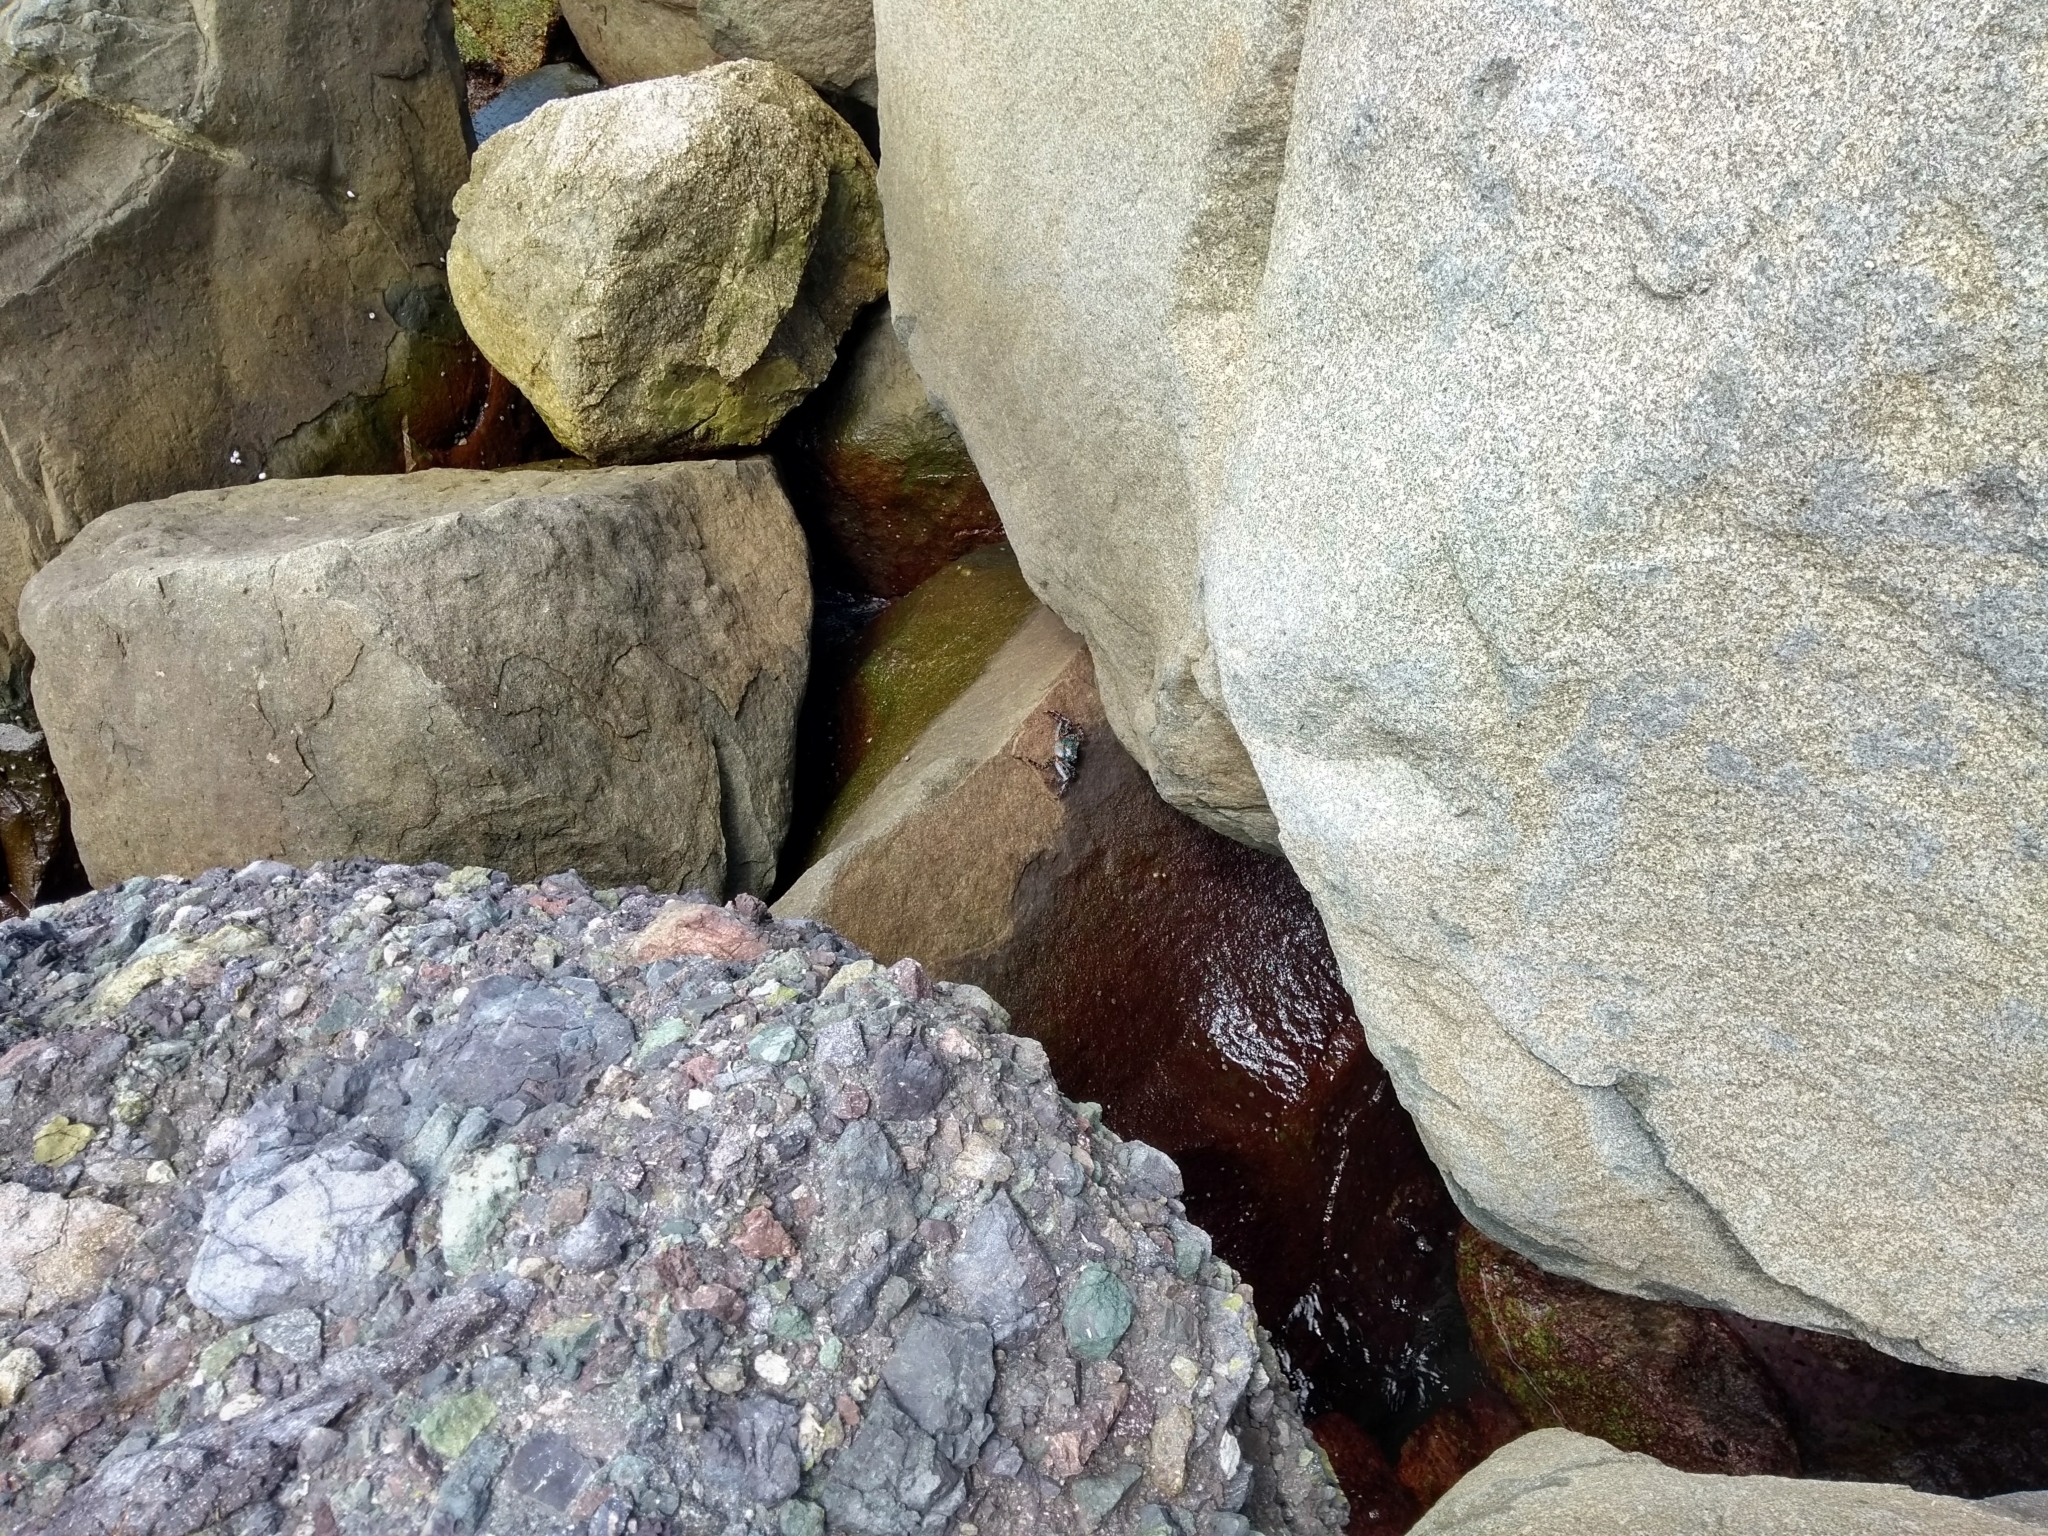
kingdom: Animalia
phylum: Arthropoda
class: Malacostraca
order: Decapoda
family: Grapsidae
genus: Grapsus
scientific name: Grapsus grapsus
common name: Sally lightfoot
